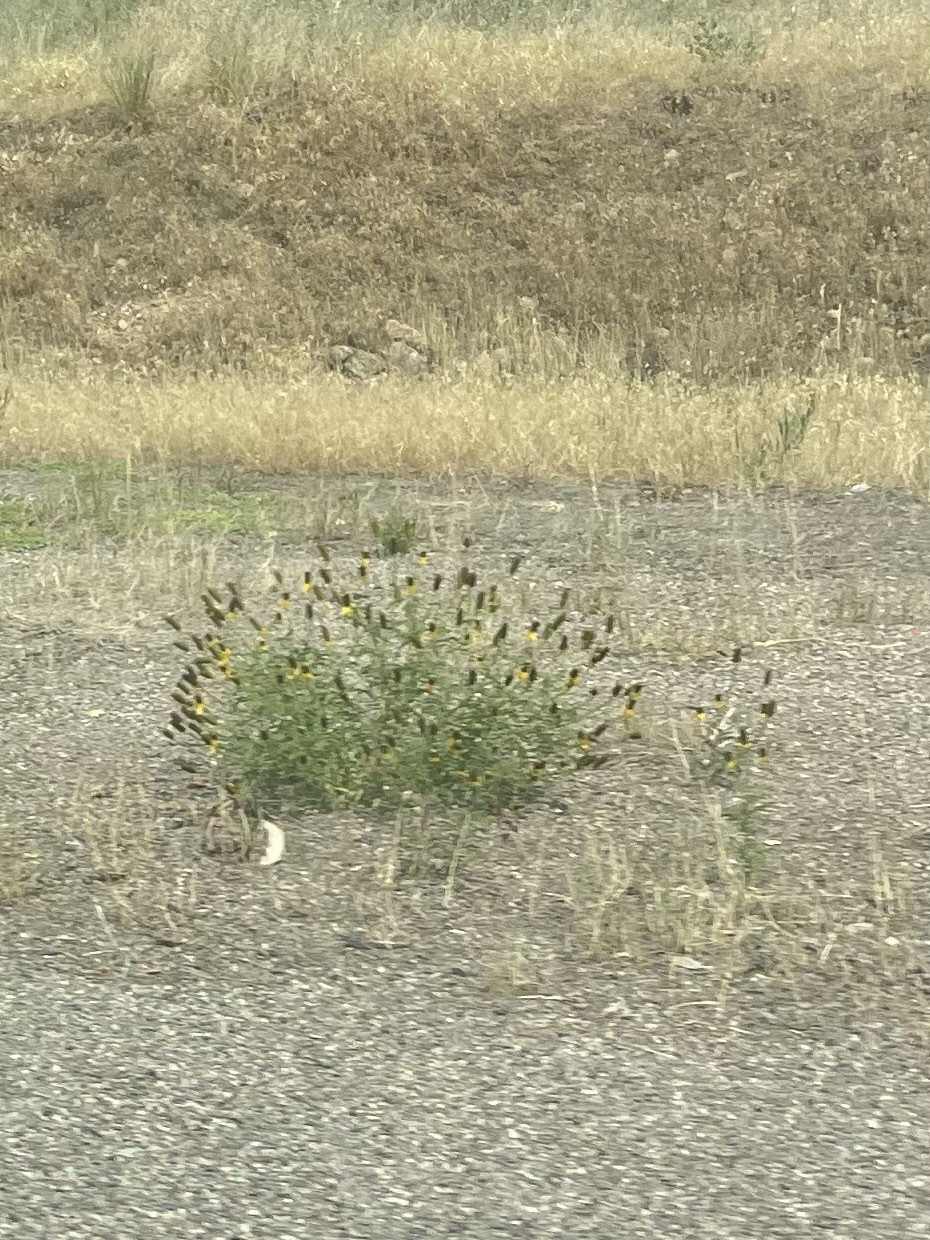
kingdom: Plantae
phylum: Tracheophyta
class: Magnoliopsida
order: Asterales
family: Asteraceae
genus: Ratibida
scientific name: Ratibida columnifera
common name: Prairie coneflower
